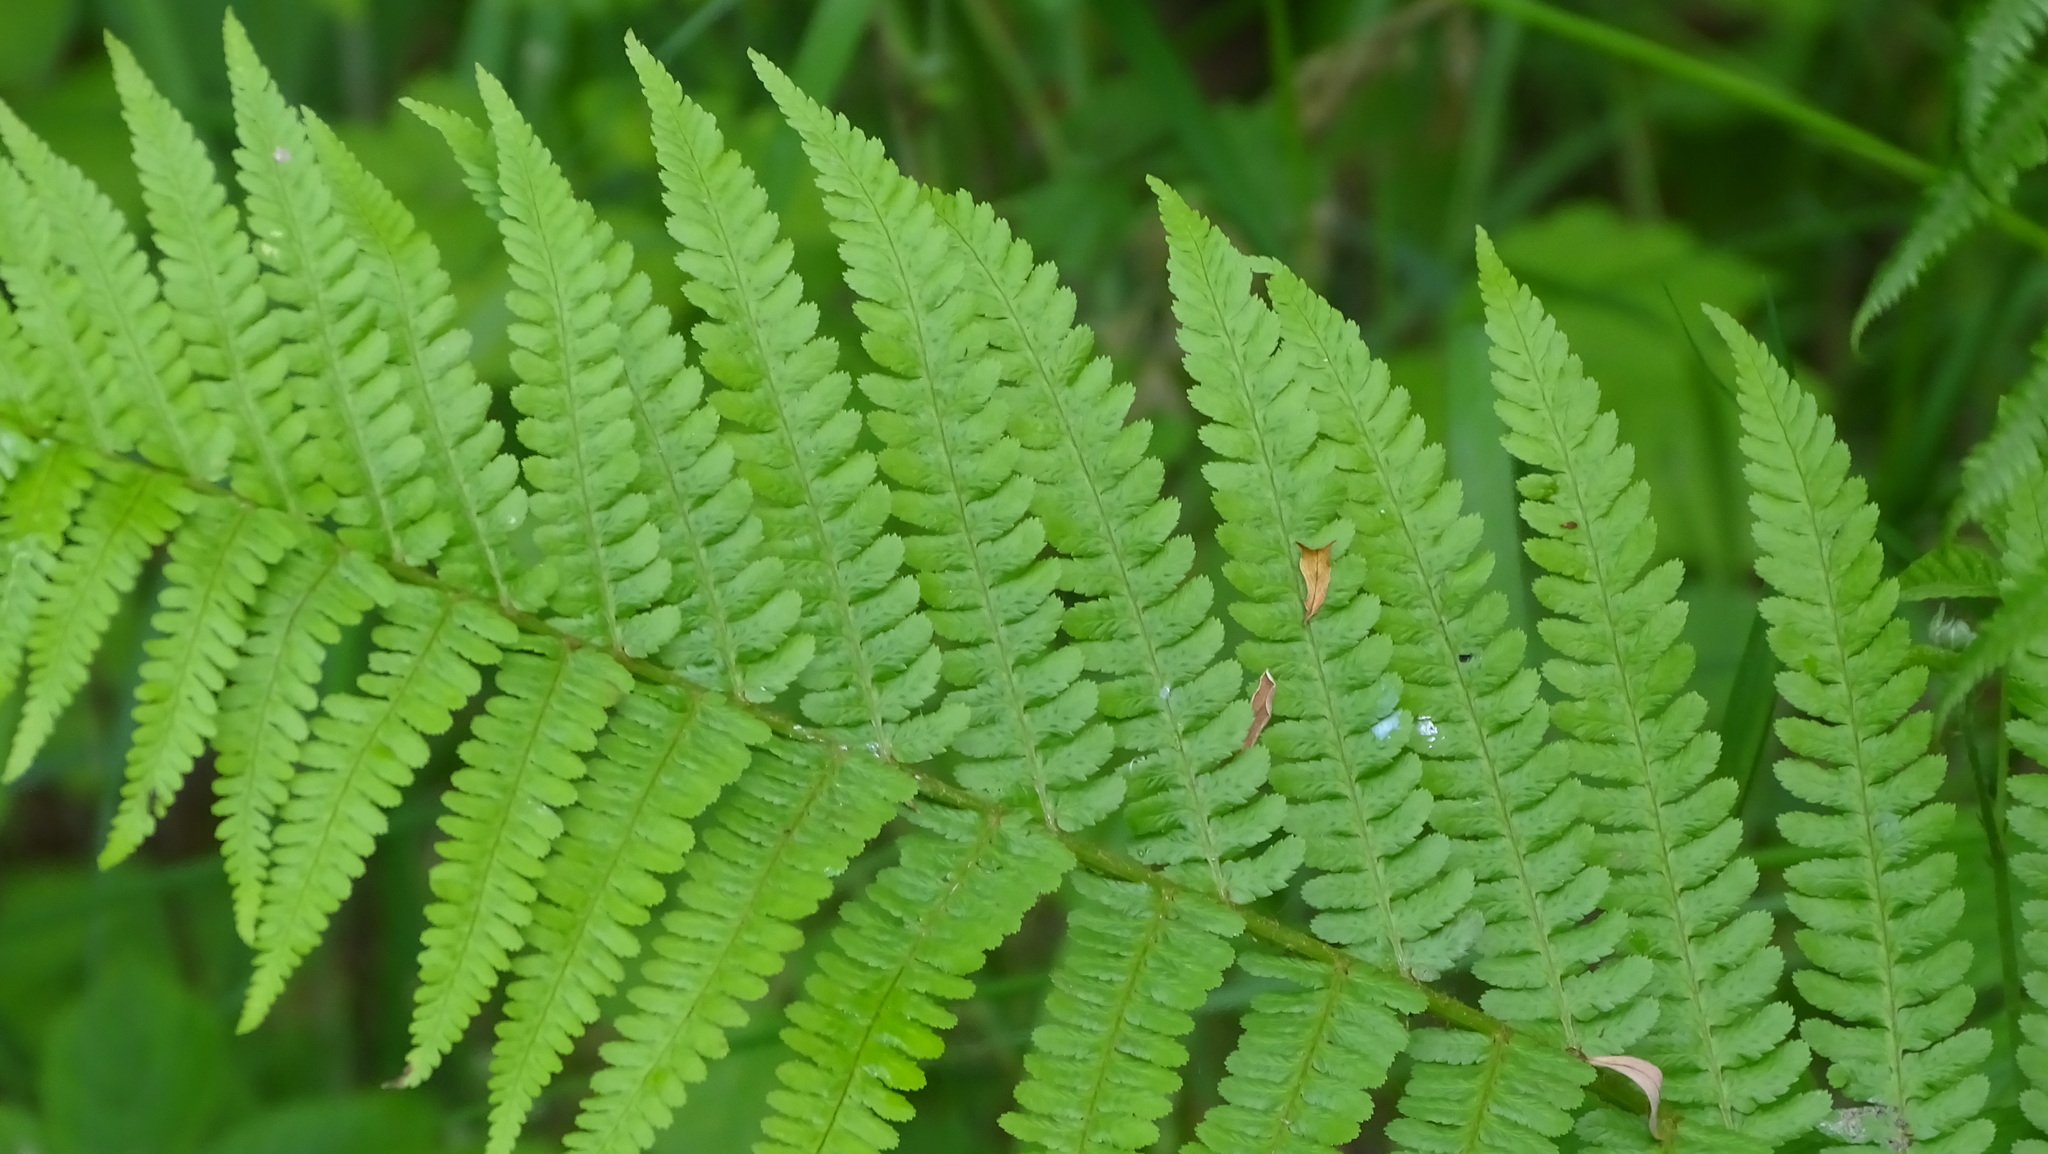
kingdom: Plantae
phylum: Tracheophyta
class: Polypodiopsida
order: Polypodiales
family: Dryopteridaceae
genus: Dryopteris
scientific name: Dryopteris filix-mas
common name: Male fern
